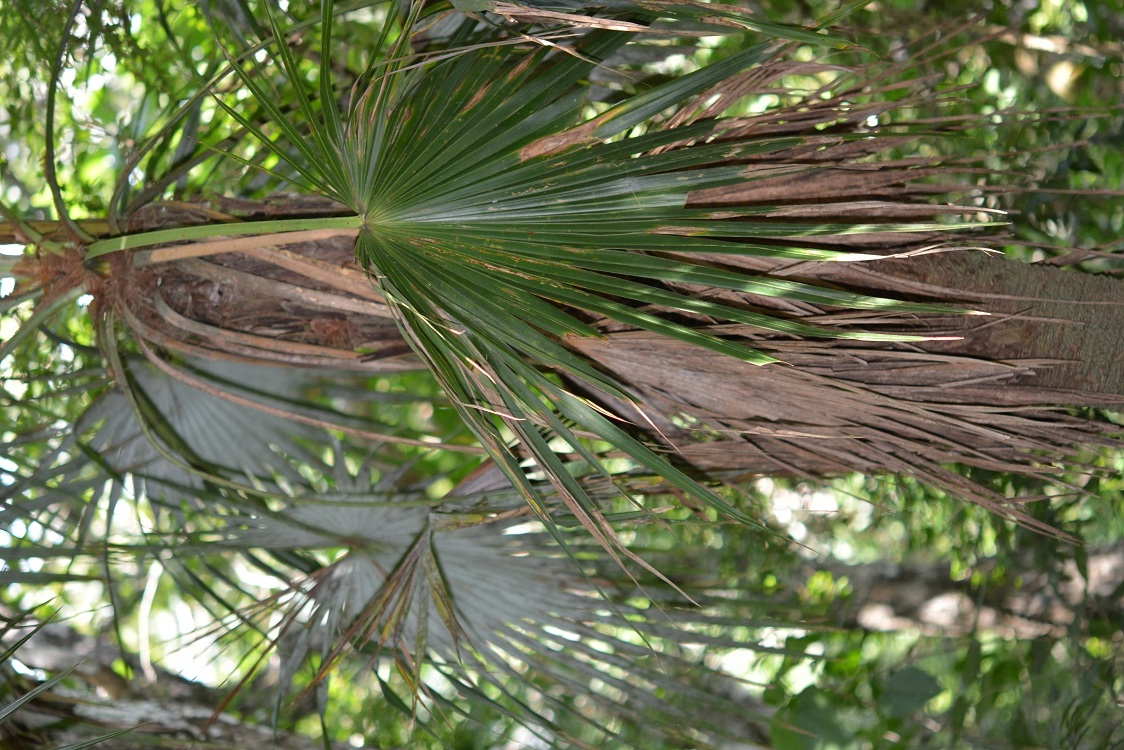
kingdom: Plantae
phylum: Tracheophyta
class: Liliopsida
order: Arecales
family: Arecaceae
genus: Brahea
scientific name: Brahea nitida
